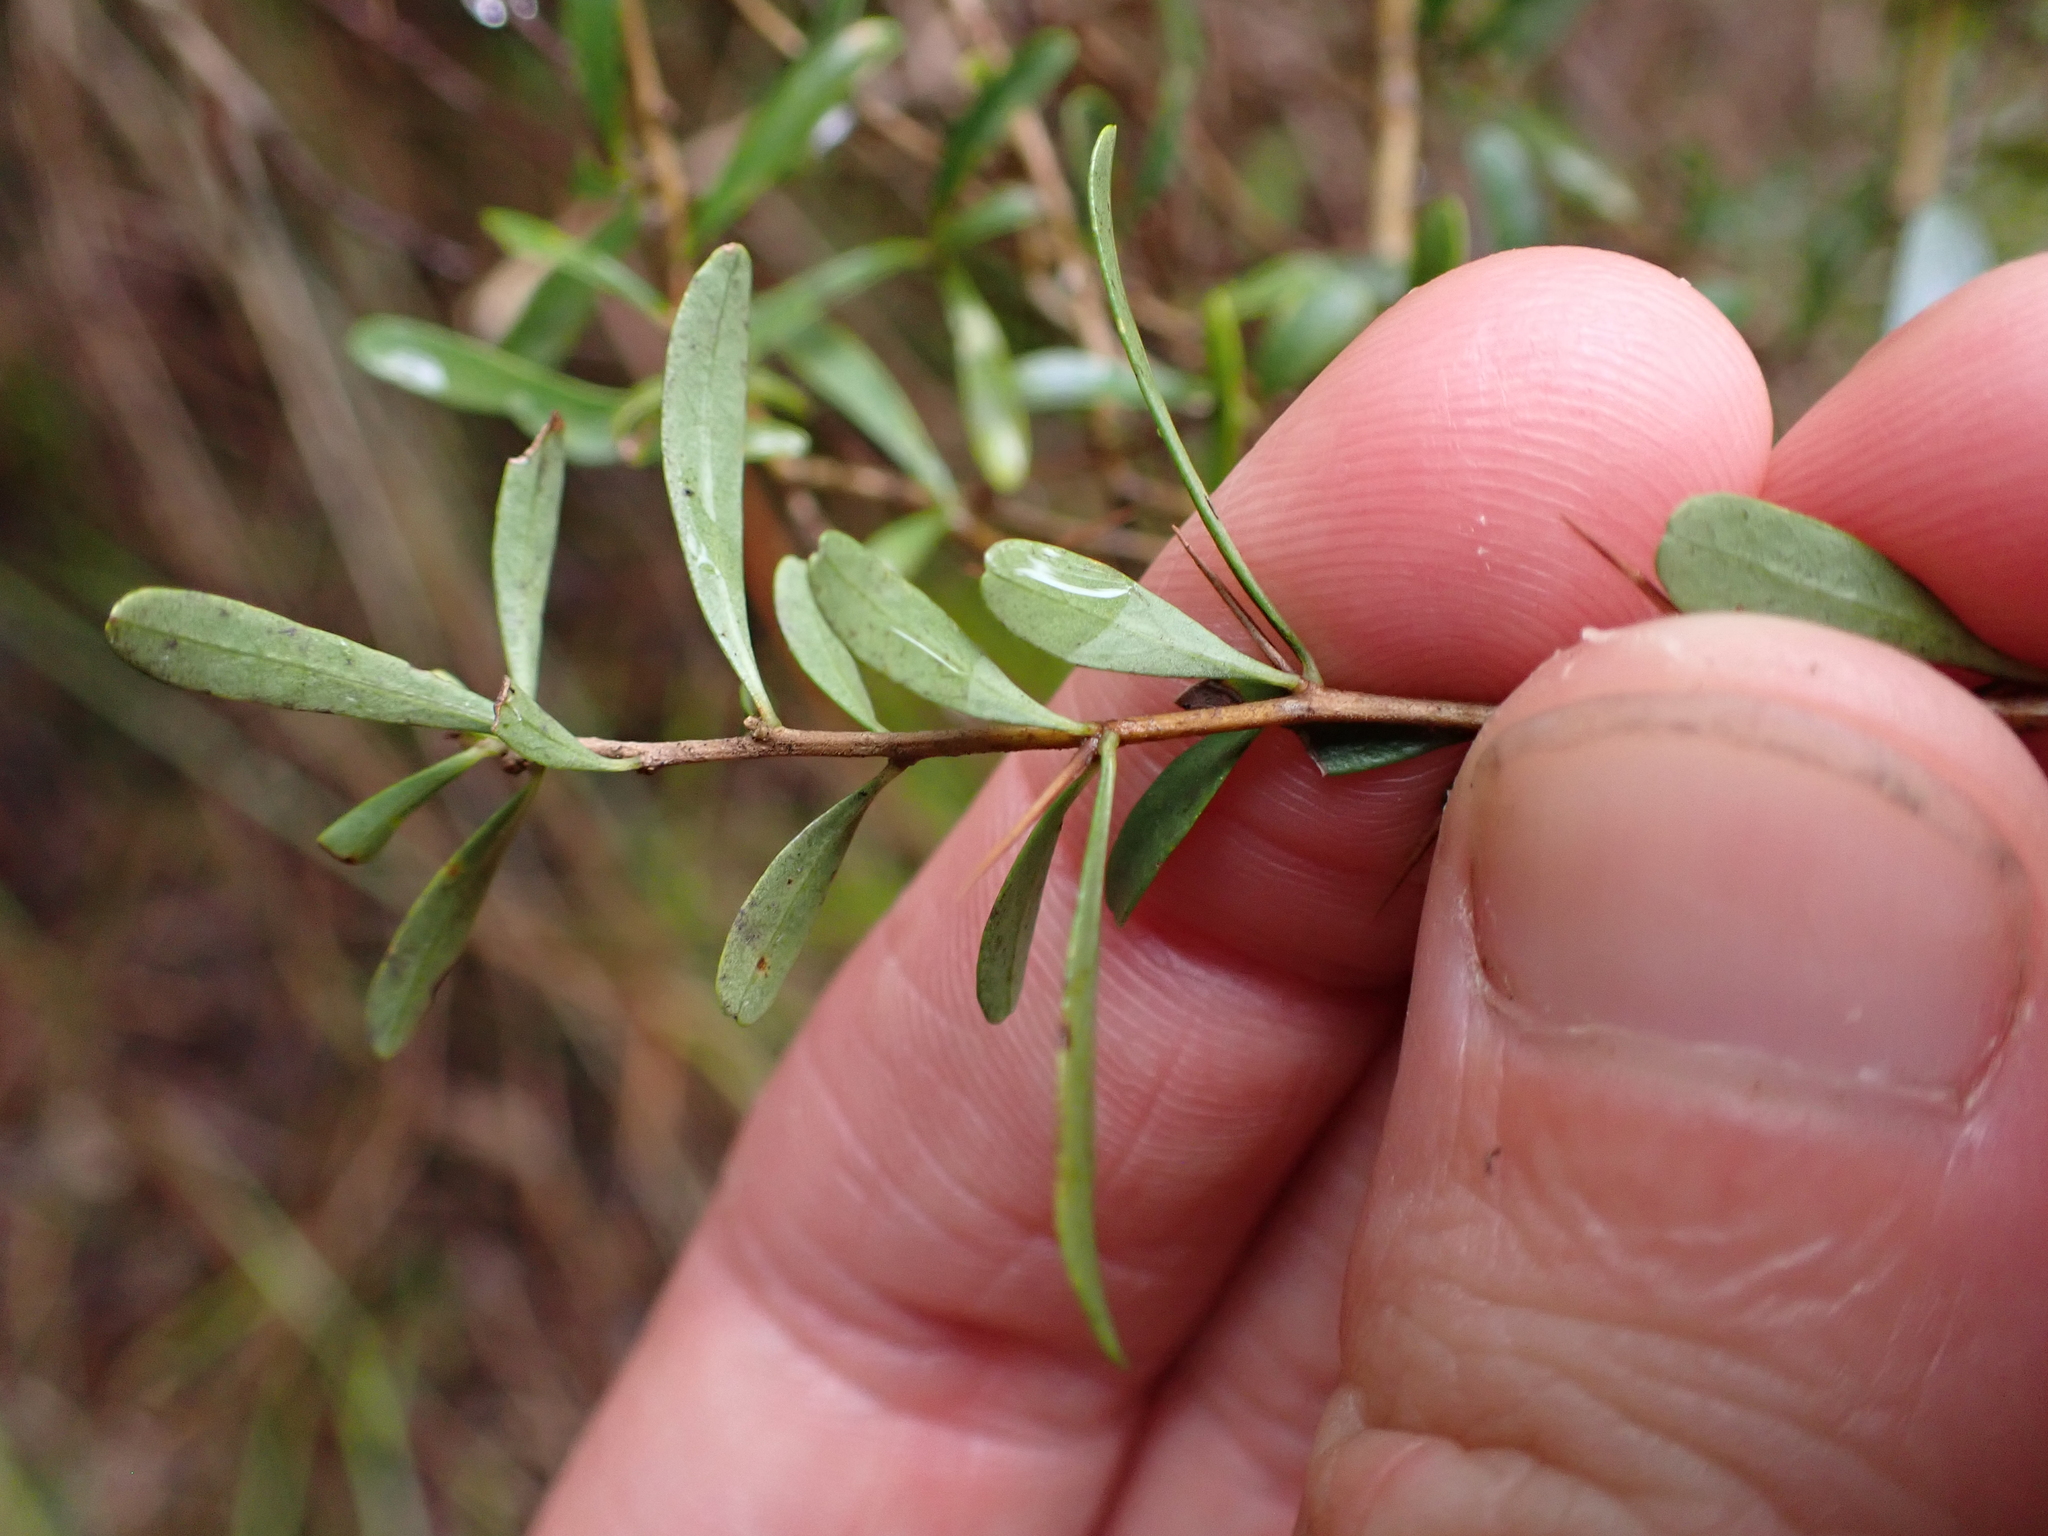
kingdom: Plantae
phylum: Tracheophyta
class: Magnoliopsida
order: Apiales
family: Pittosporaceae
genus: Bursaria
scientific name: Bursaria spinosa
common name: Australian blackthorn
